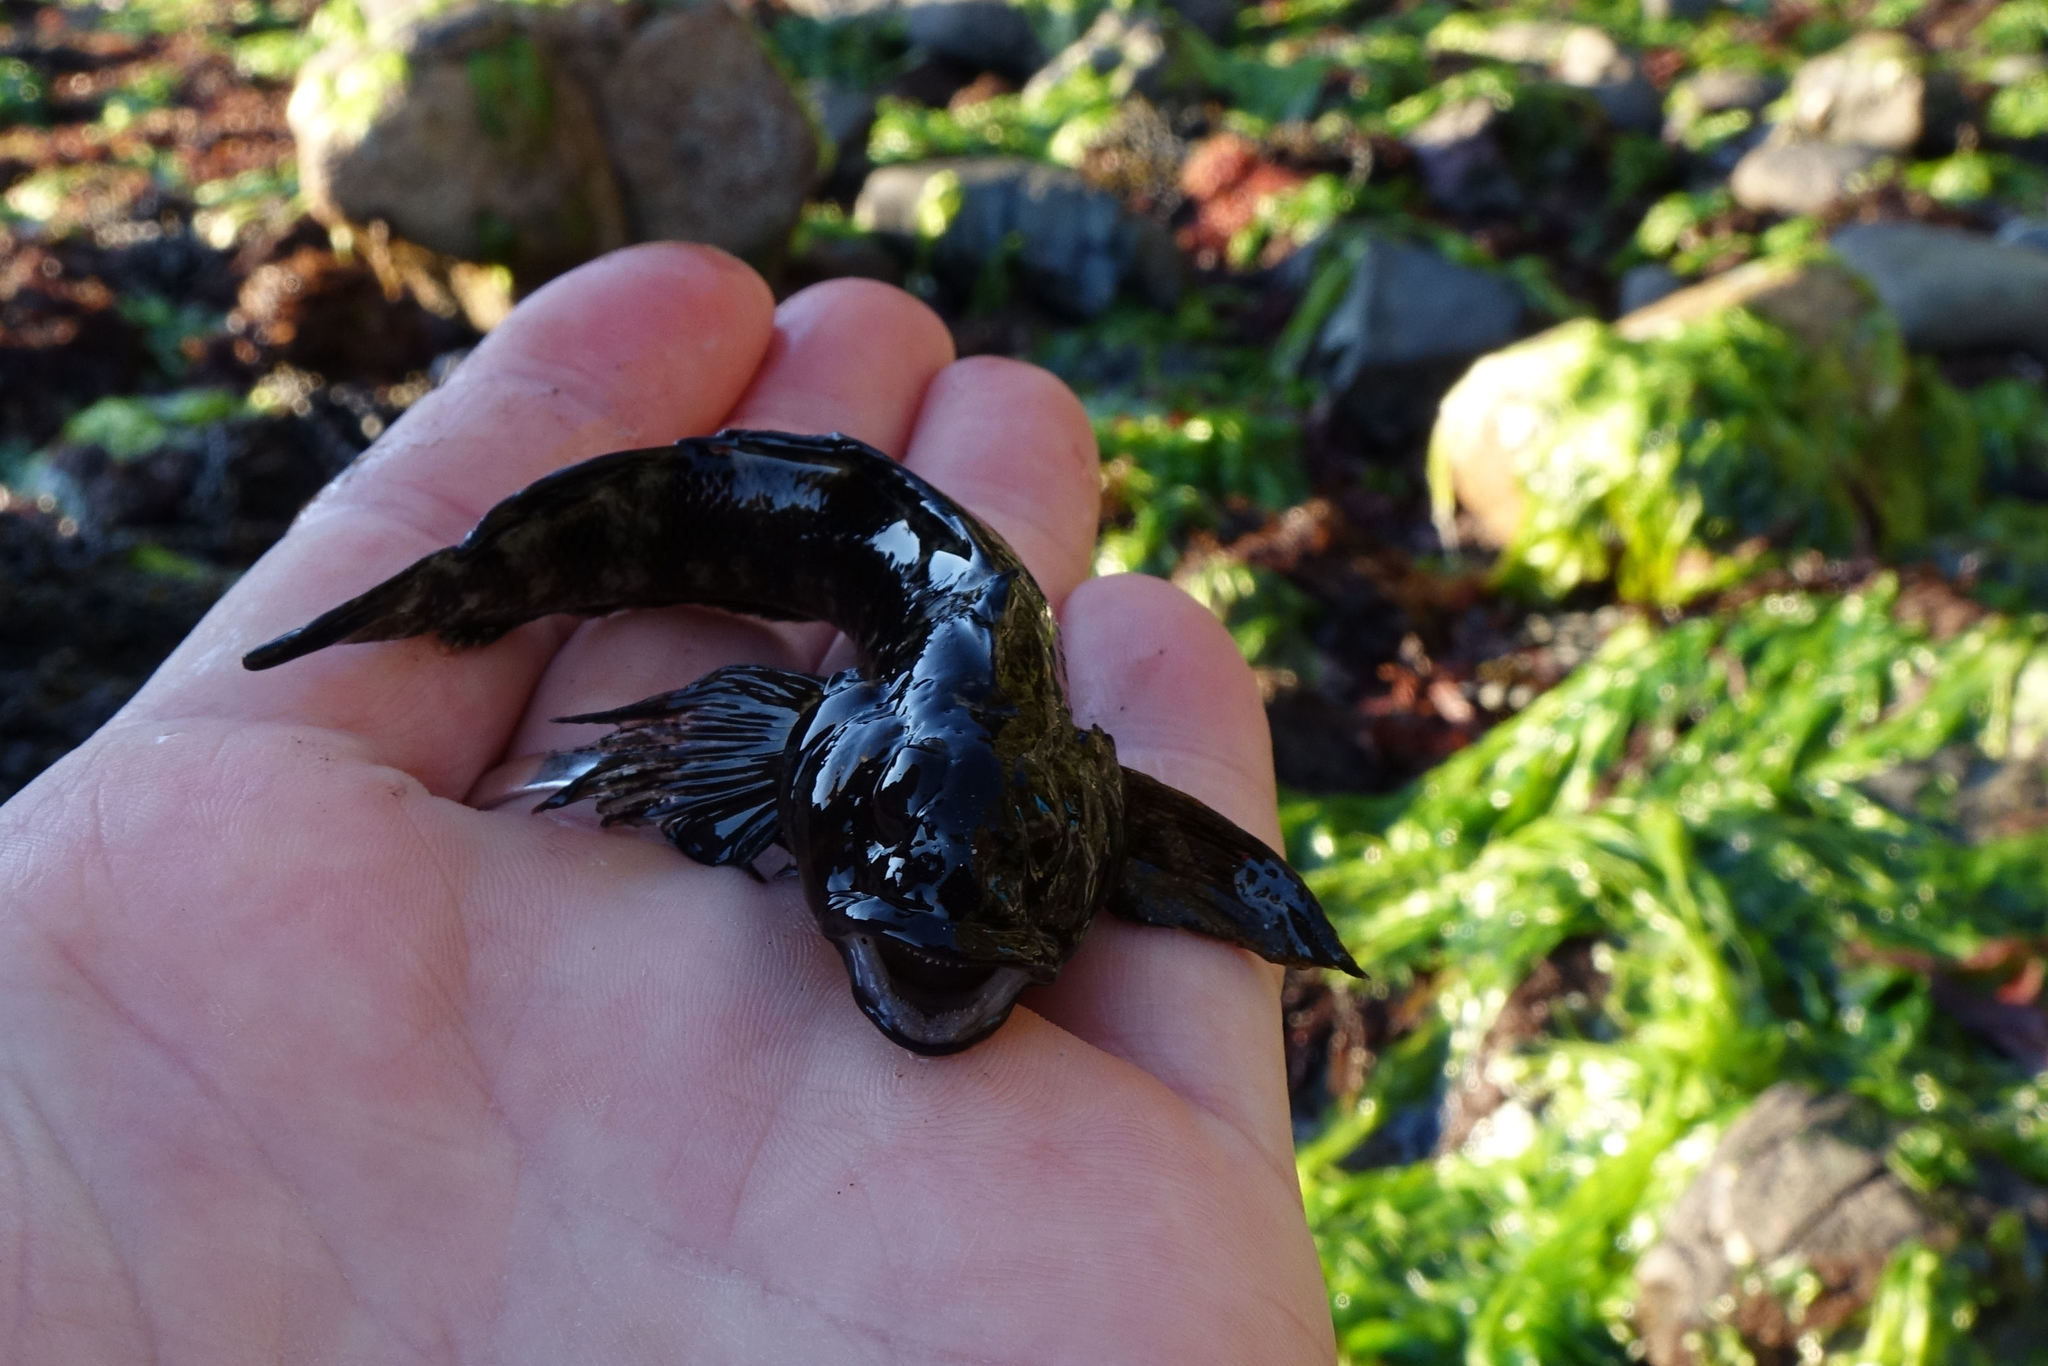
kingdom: Animalia
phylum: Chordata
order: Perciformes
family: Tripterygiidae
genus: Forsterygion
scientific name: Forsterygion gymnotum
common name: Multifid-tentacled robust triplefin
